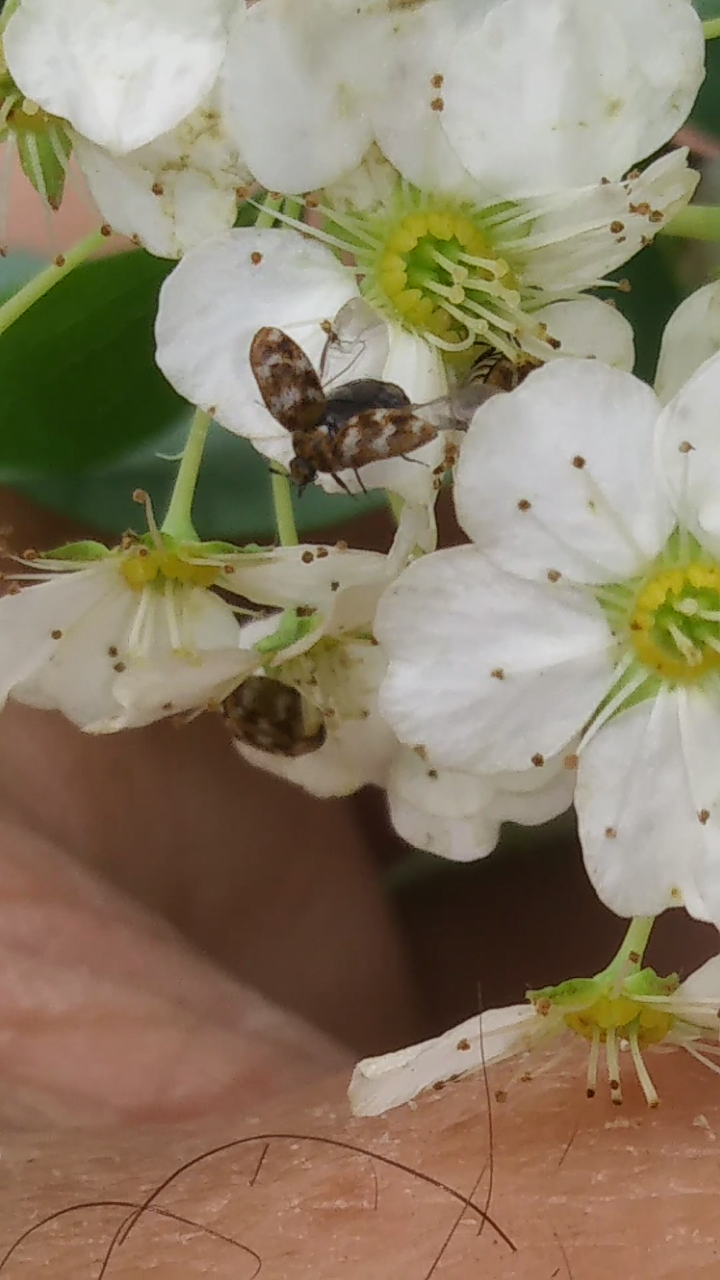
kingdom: Animalia
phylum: Arthropoda
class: Insecta
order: Coleoptera
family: Dermestidae
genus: Anthrenus
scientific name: Anthrenus verbasci
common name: Varied carpet beetle
